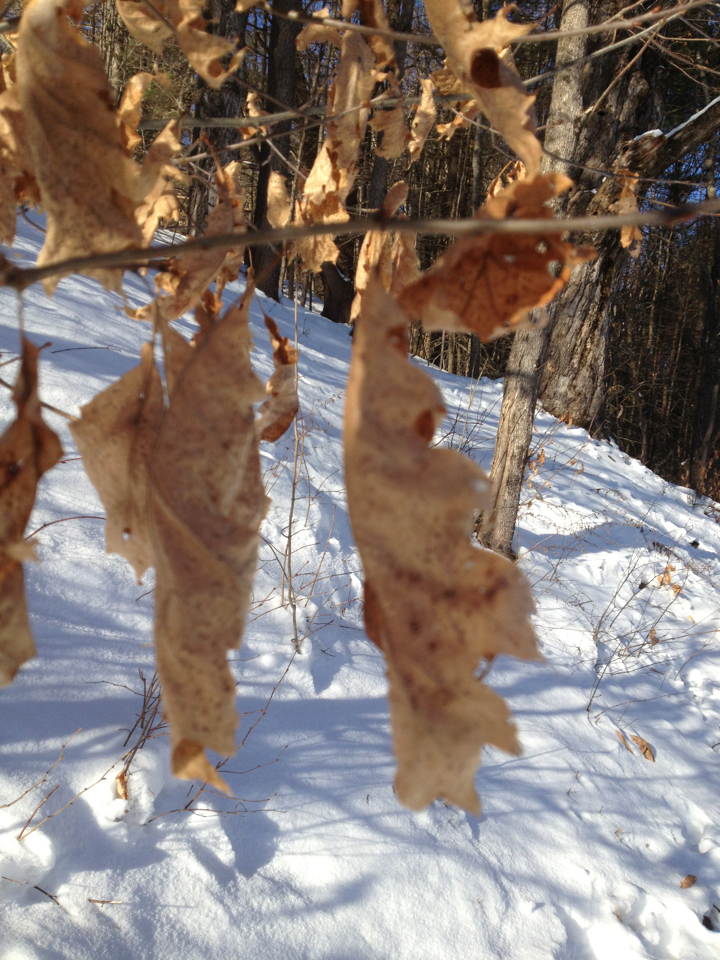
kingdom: Plantae
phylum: Tracheophyta
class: Magnoliopsida
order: Fagales
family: Fagaceae
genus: Quercus
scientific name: Quercus rubra
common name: Red oak
